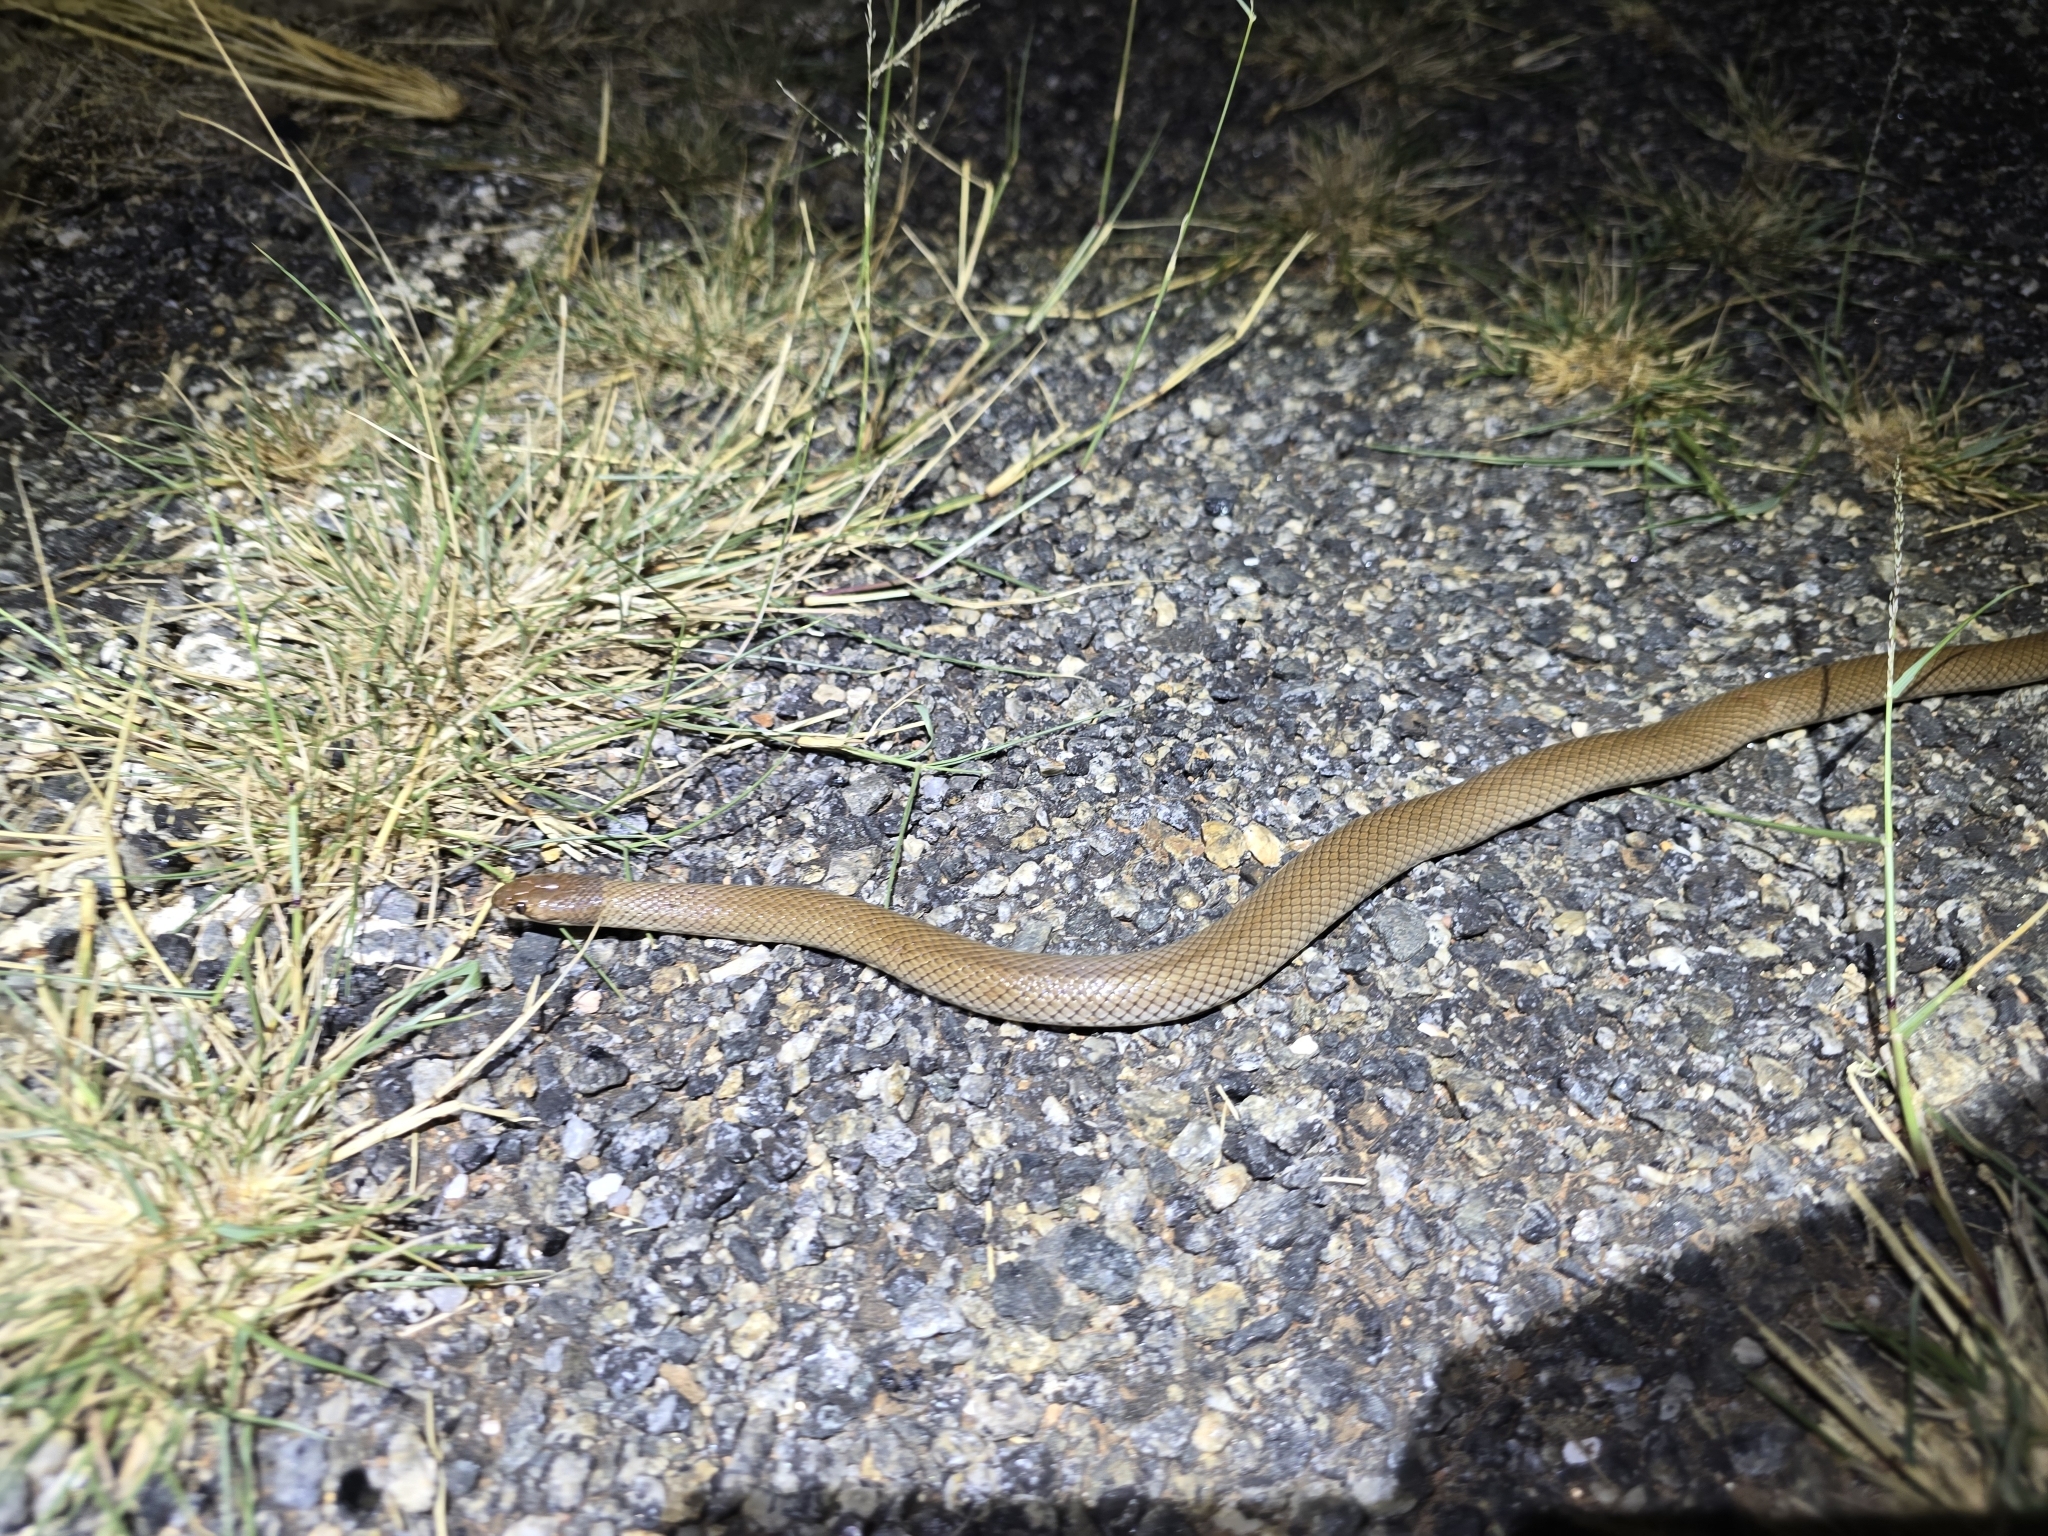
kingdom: Animalia
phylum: Chordata
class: Squamata
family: Elapidae
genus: Suta
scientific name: Suta suta
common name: Curl snake
